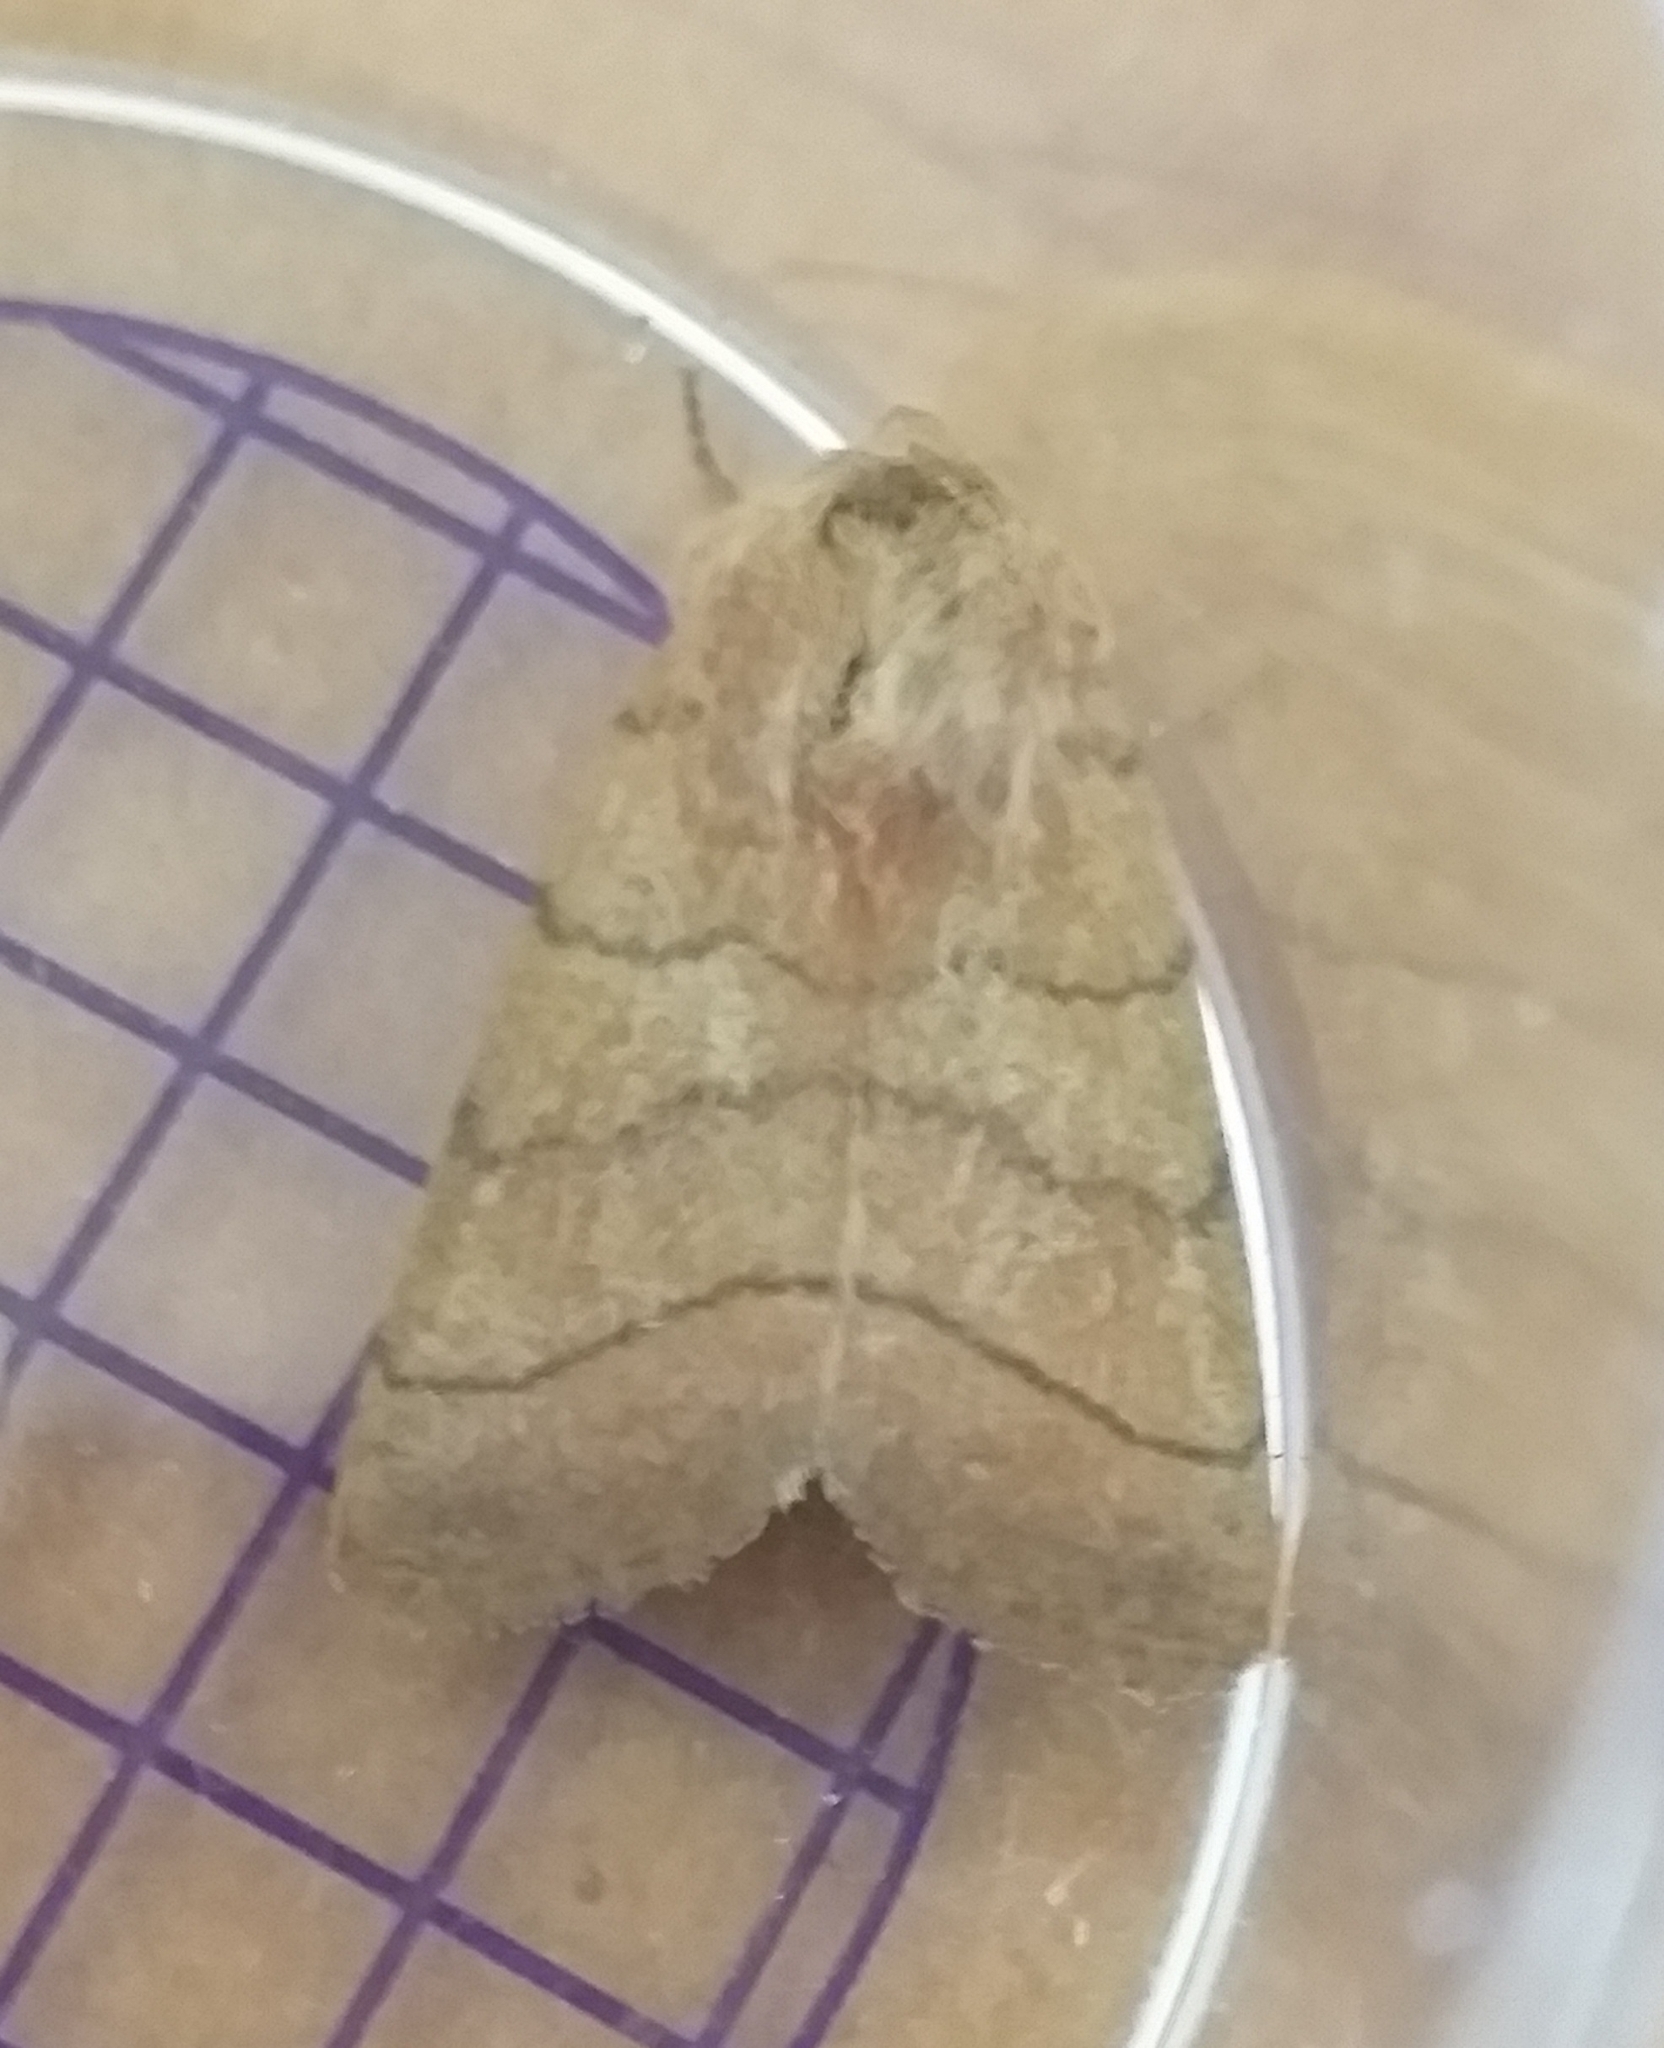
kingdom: Animalia
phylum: Arthropoda
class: Insecta
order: Lepidoptera
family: Noctuidae
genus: Charanyca
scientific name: Charanyca trigrammica
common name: Treble lines
